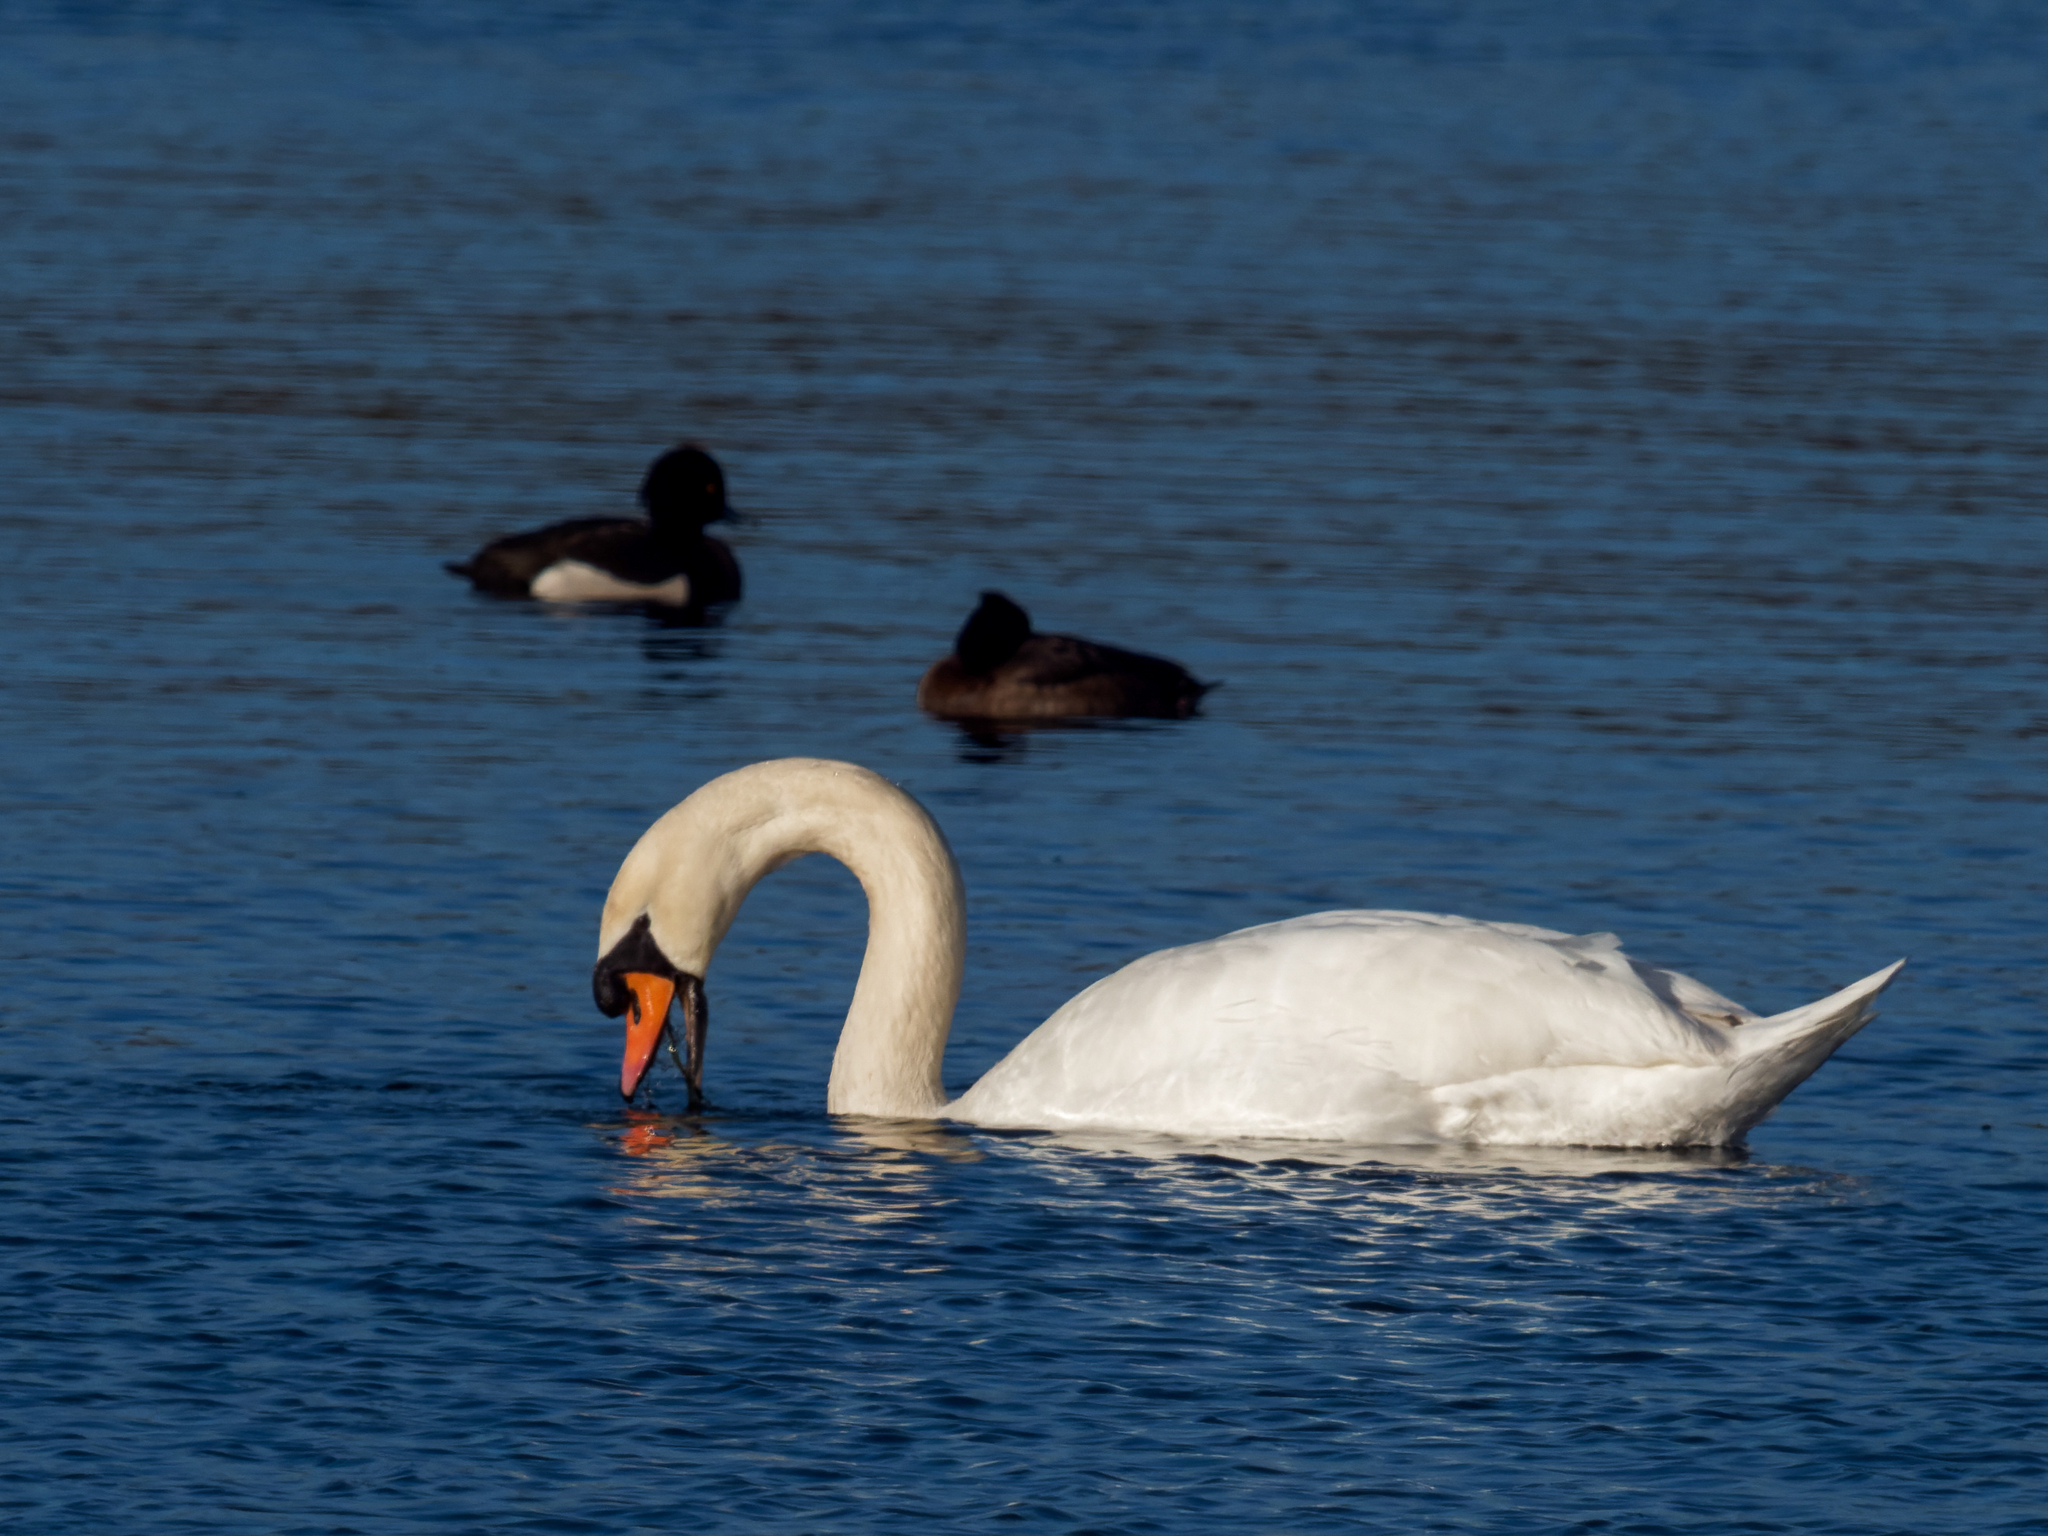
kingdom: Animalia
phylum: Chordata
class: Aves
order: Anseriformes
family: Anatidae
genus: Cygnus
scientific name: Cygnus olor
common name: Mute swan
